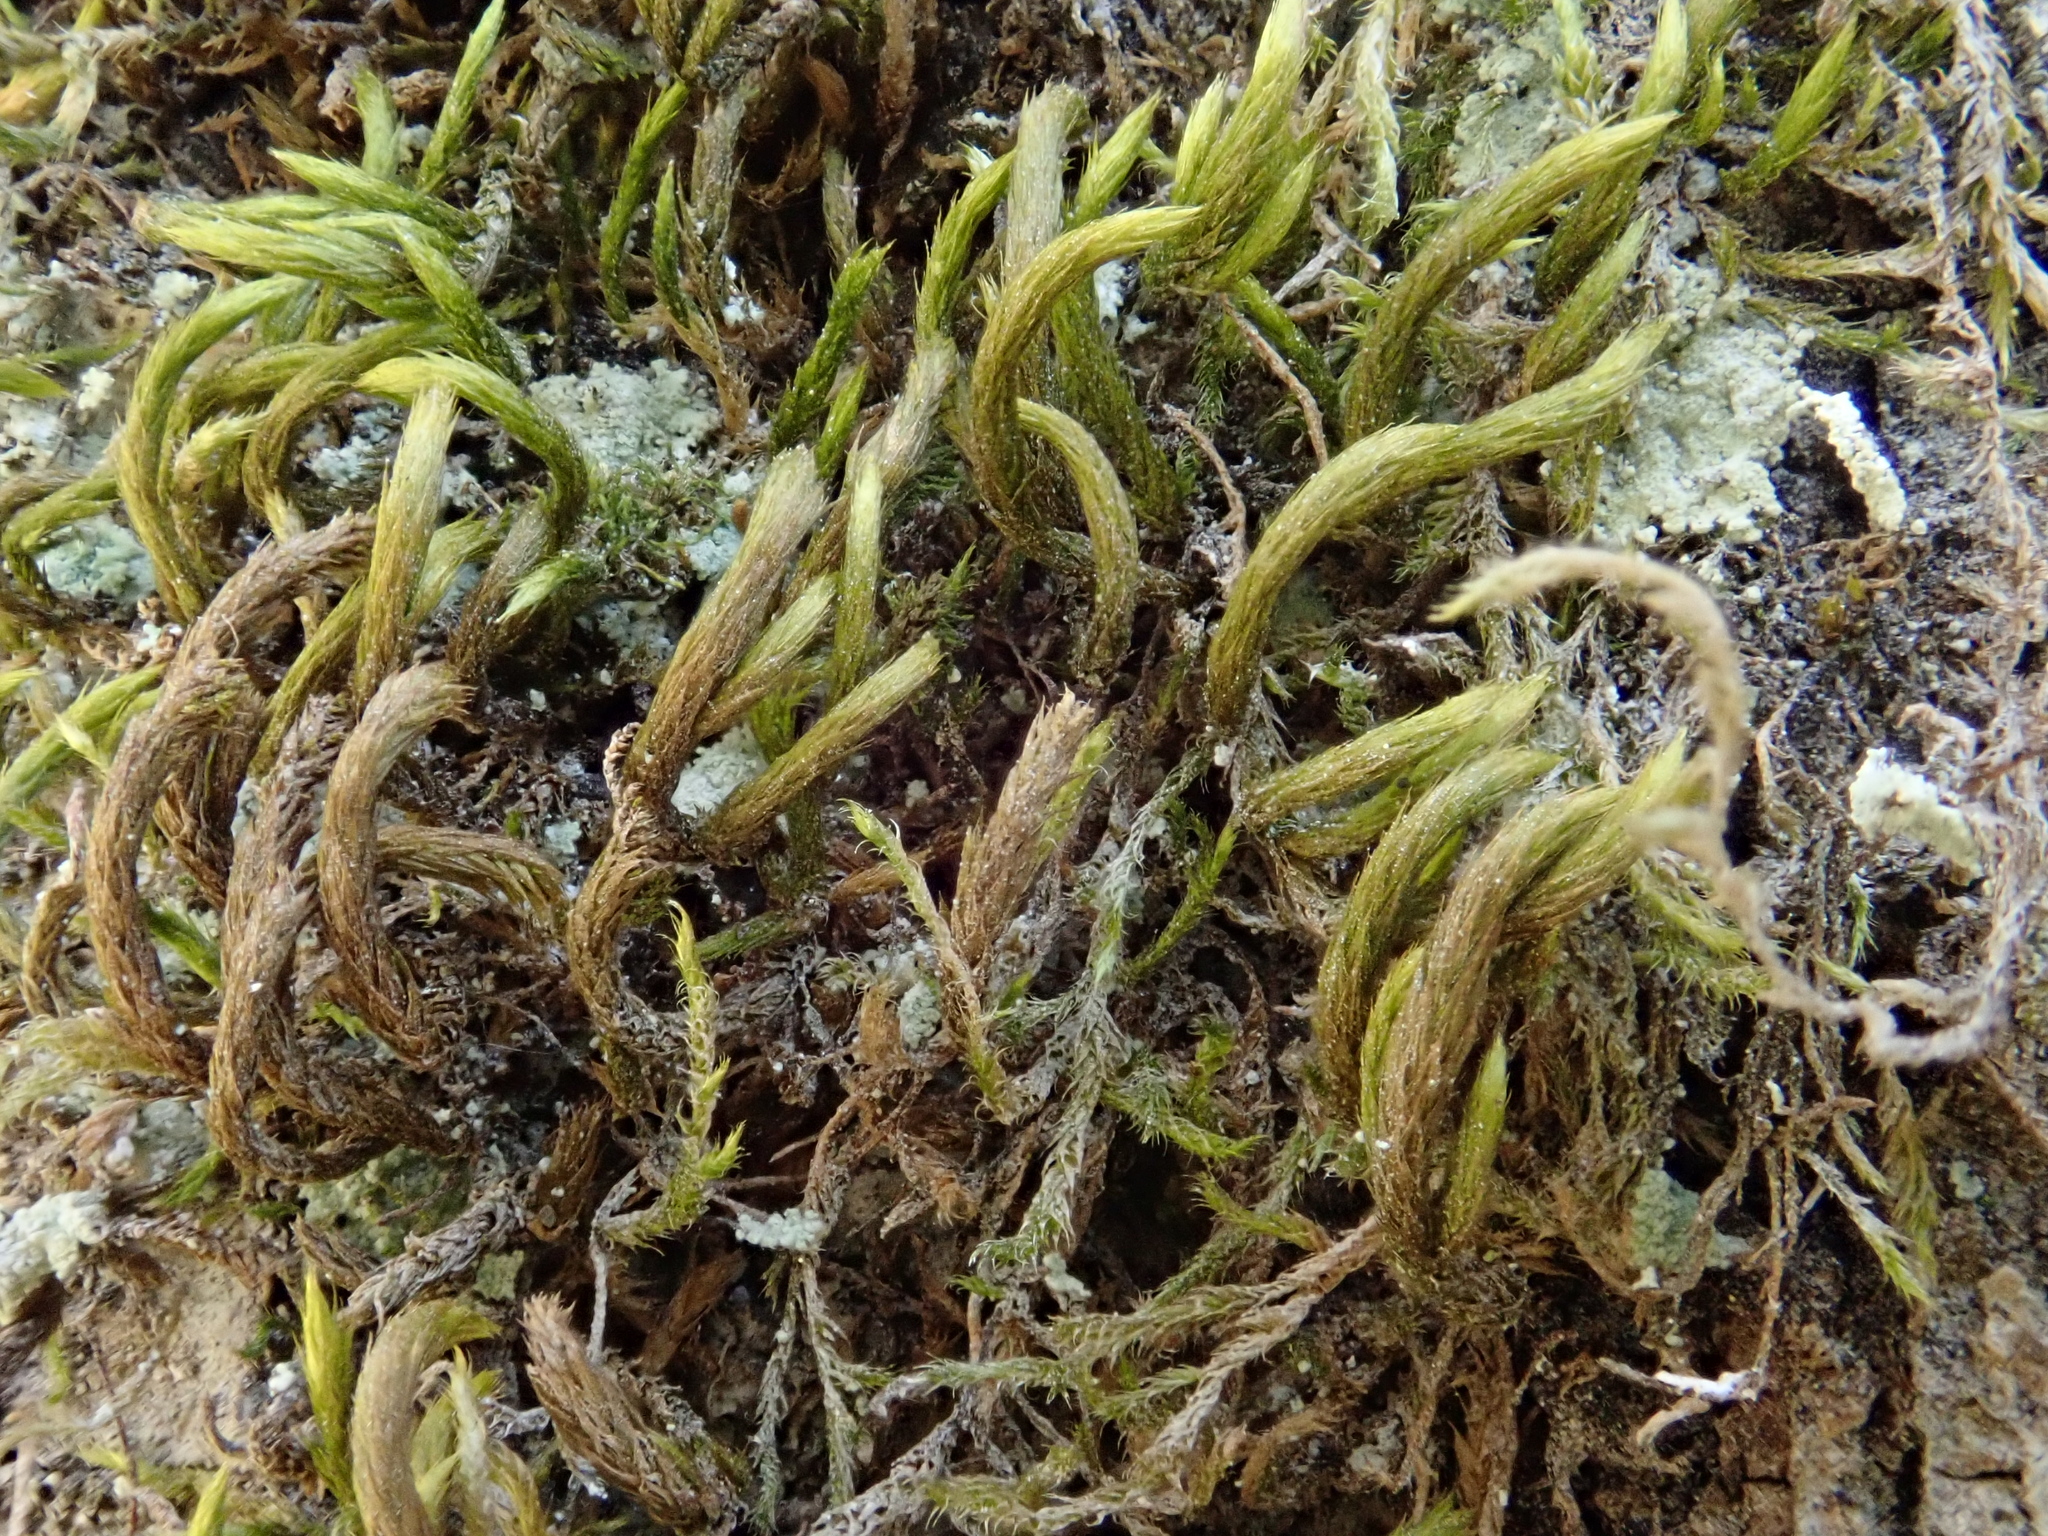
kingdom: Plantae
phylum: Bryophyta
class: Bryopsida
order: Hypnales
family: Leucodontaceae
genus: Leucodon
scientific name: Leucodon sciuroides
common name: Squirrel-tail moss
